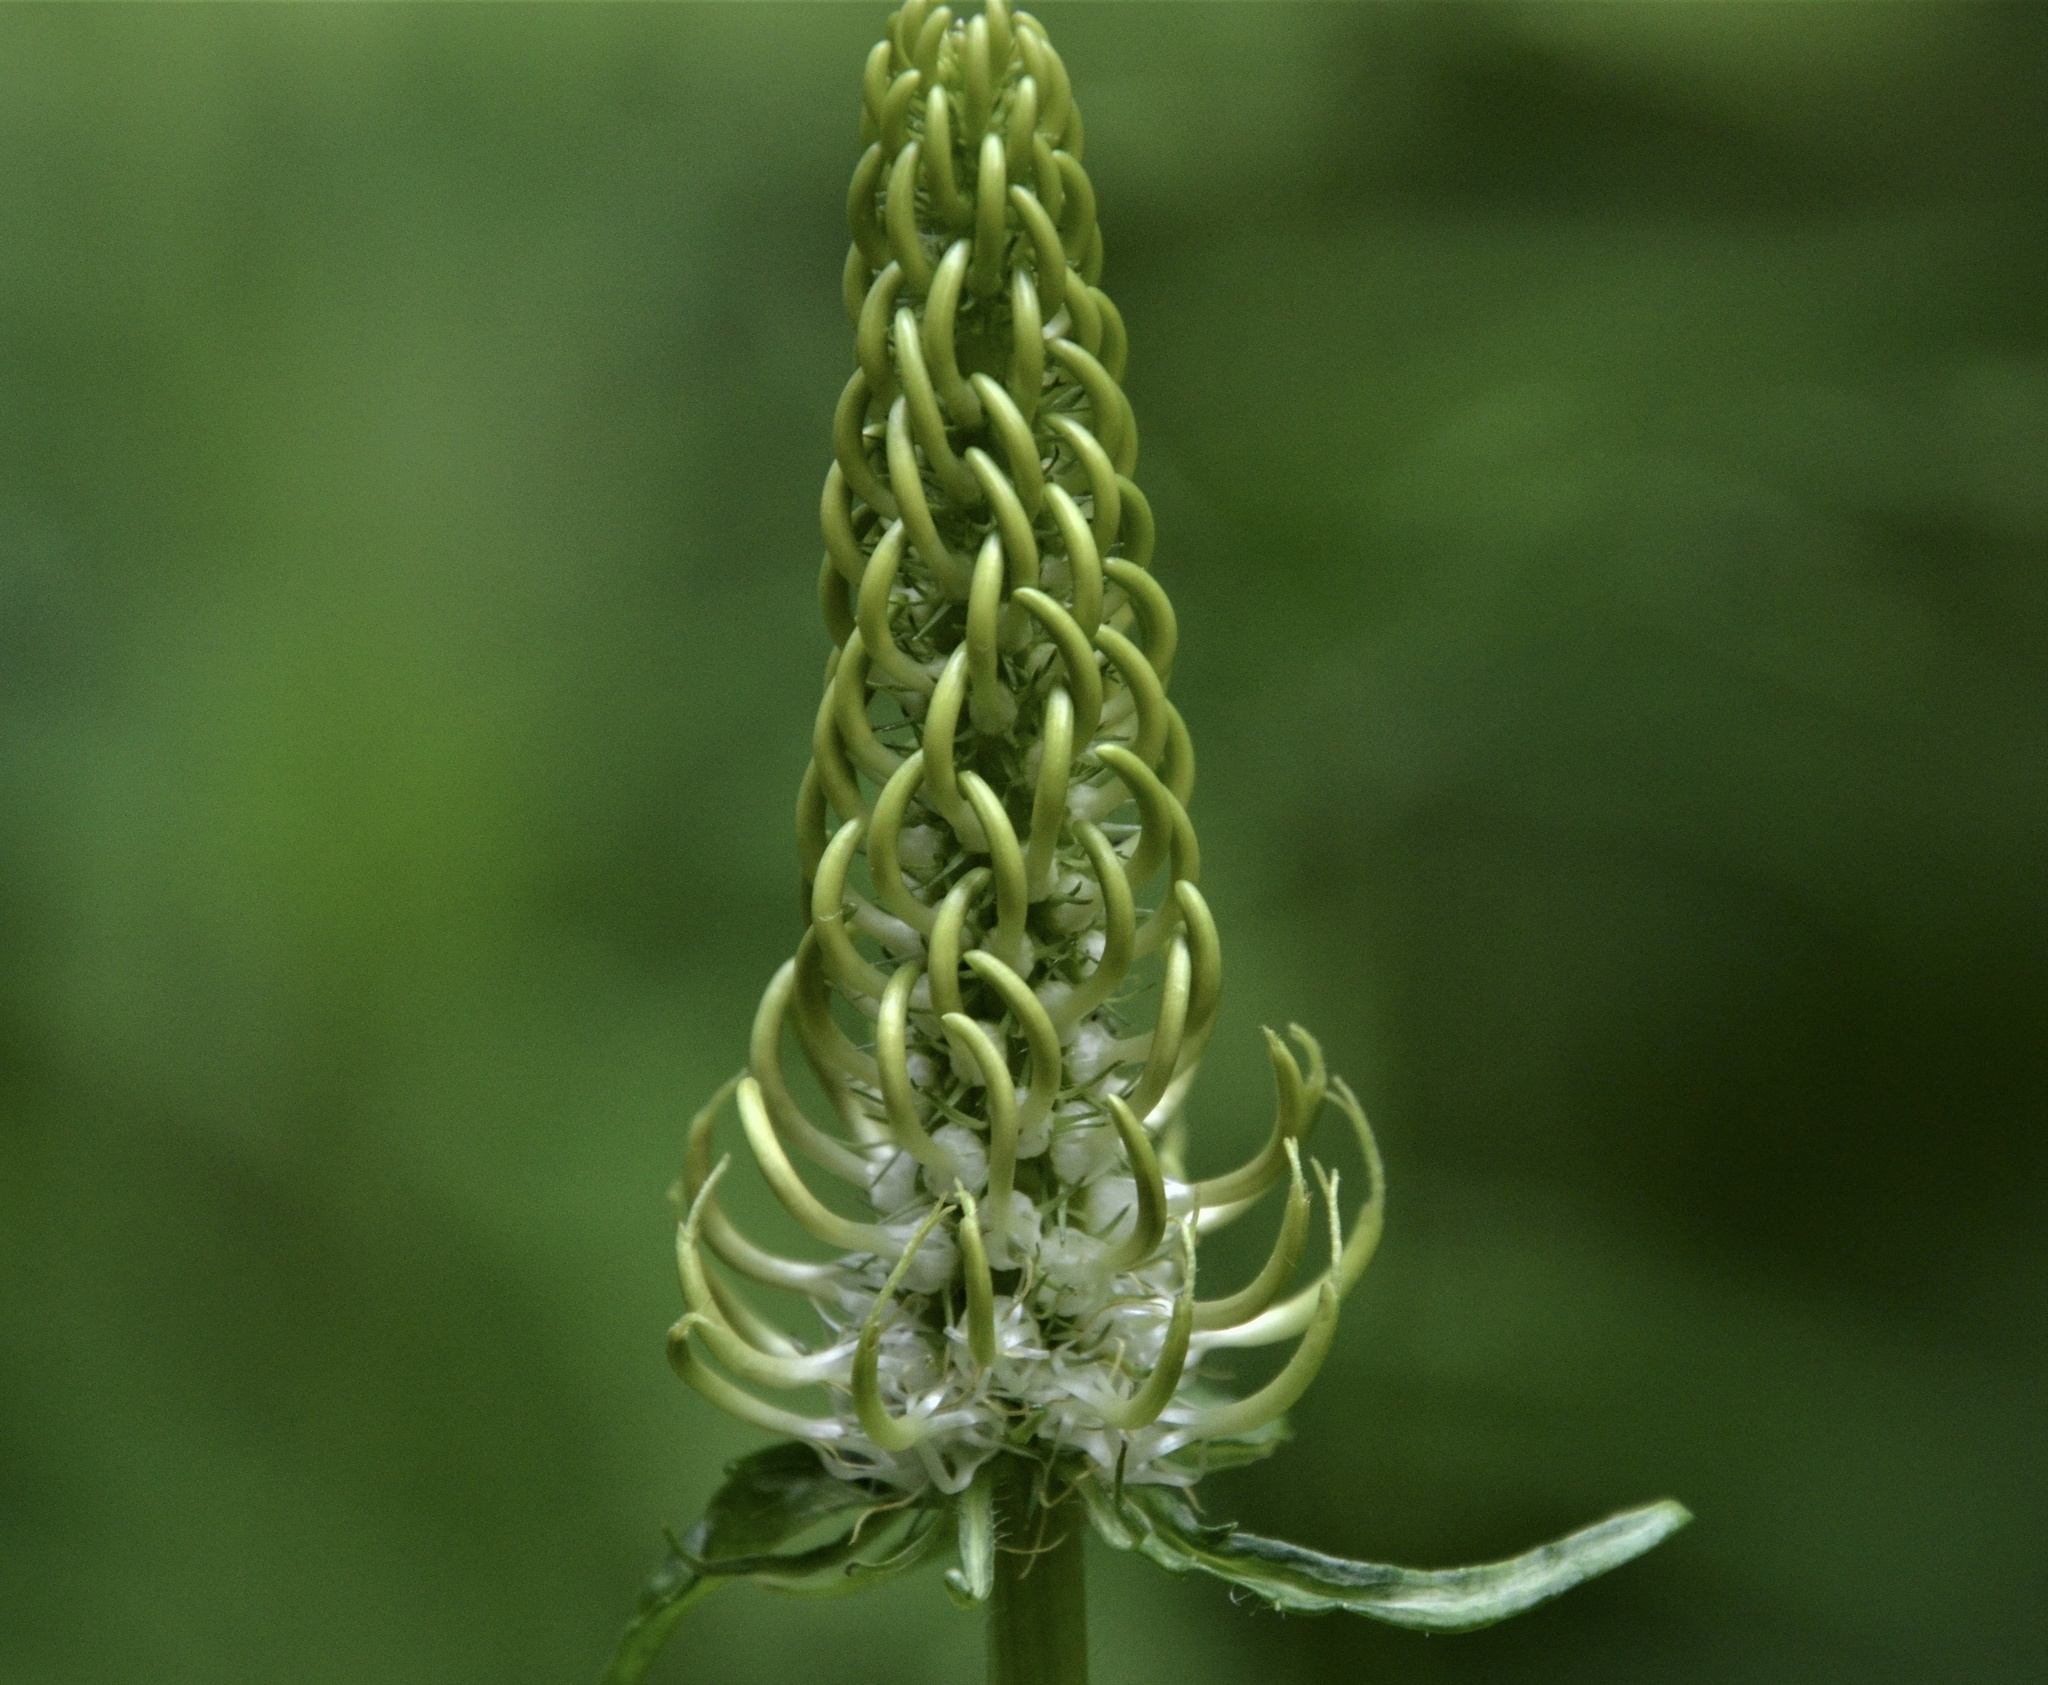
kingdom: Plantae
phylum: Tracheophyta
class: Magnoliopsida
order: Asterales
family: Campanulaceae
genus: Phyteuma
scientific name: Phyteuma spicatum
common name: Spiked rampion
